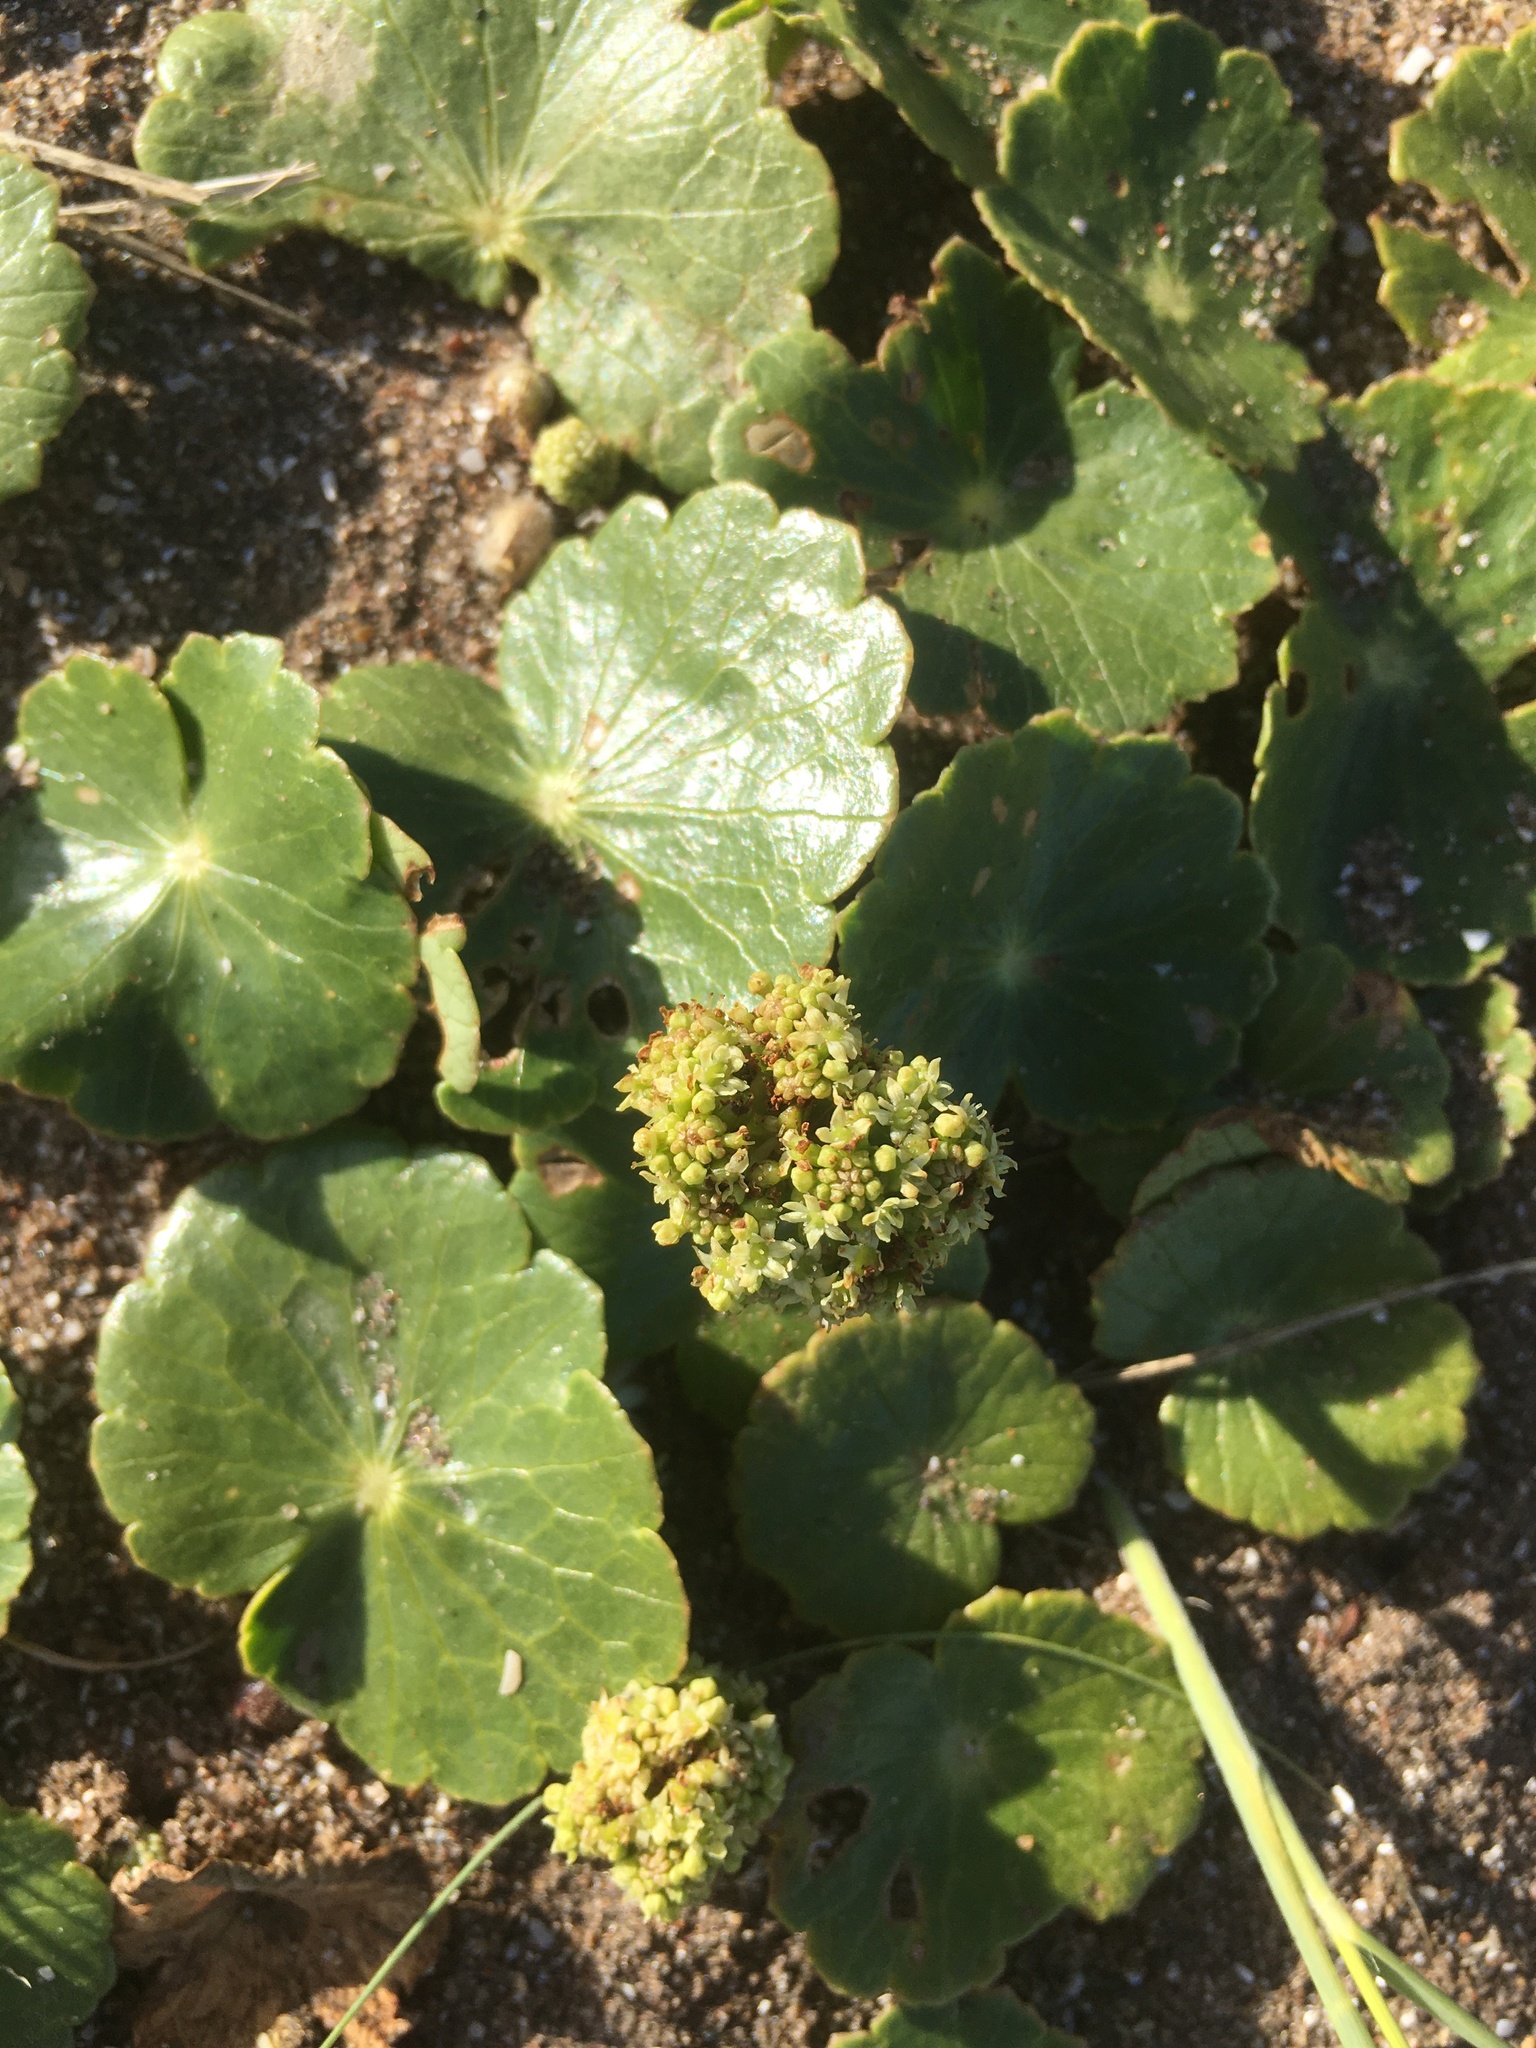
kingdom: Plantae
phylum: Tracheophyta
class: Magnoliopsida
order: Apiales
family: Araliaceae
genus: Hydrocotyle
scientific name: Hydrocotyle bonariensis
